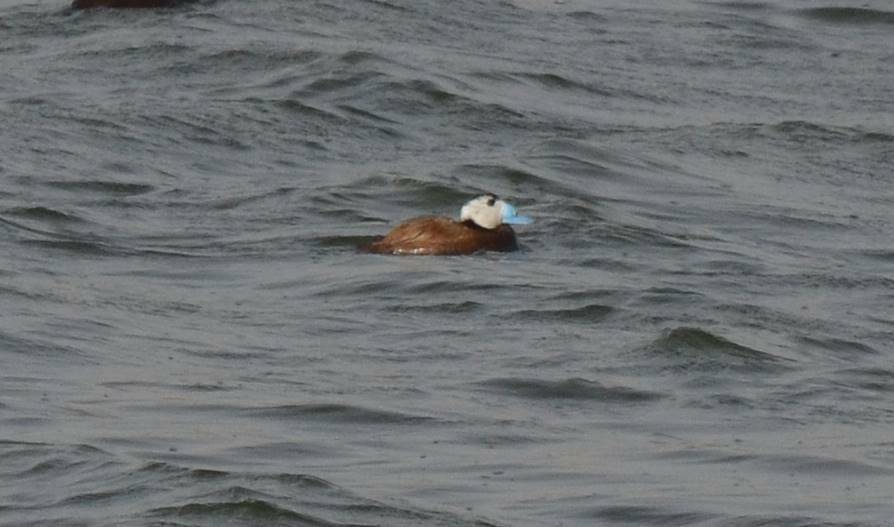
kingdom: Animalia
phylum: Chordata
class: Aves
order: Anseriformes
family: Anatidae
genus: Oxyura
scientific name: Oxyura leucocephala
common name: White-headed duck
